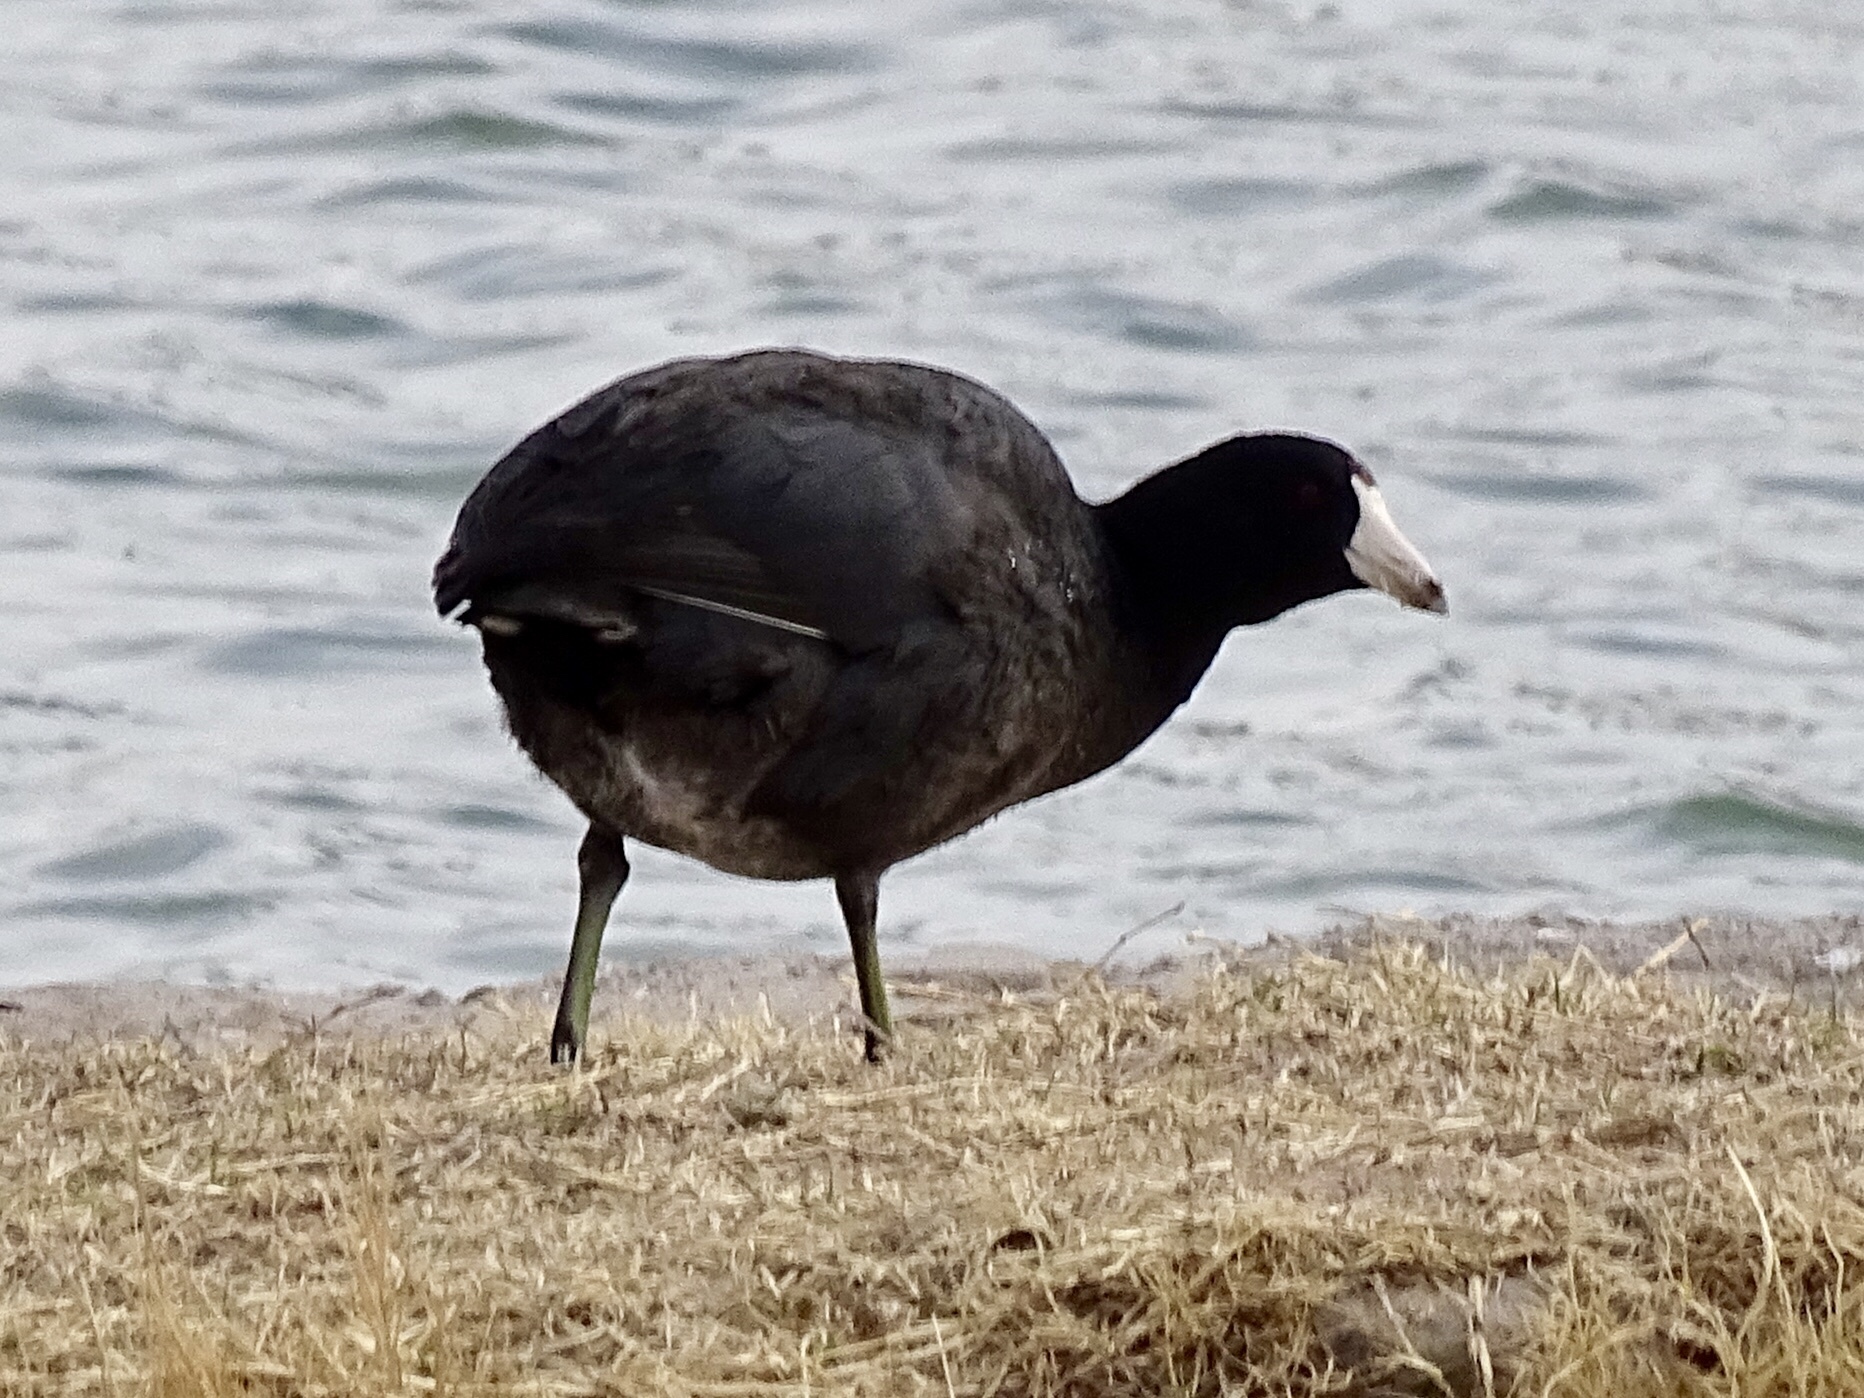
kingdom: Animalia
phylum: Chordata
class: Aves
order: Gruiformes
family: Rallidae
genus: Fulica
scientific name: Fulica americana
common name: American coot
